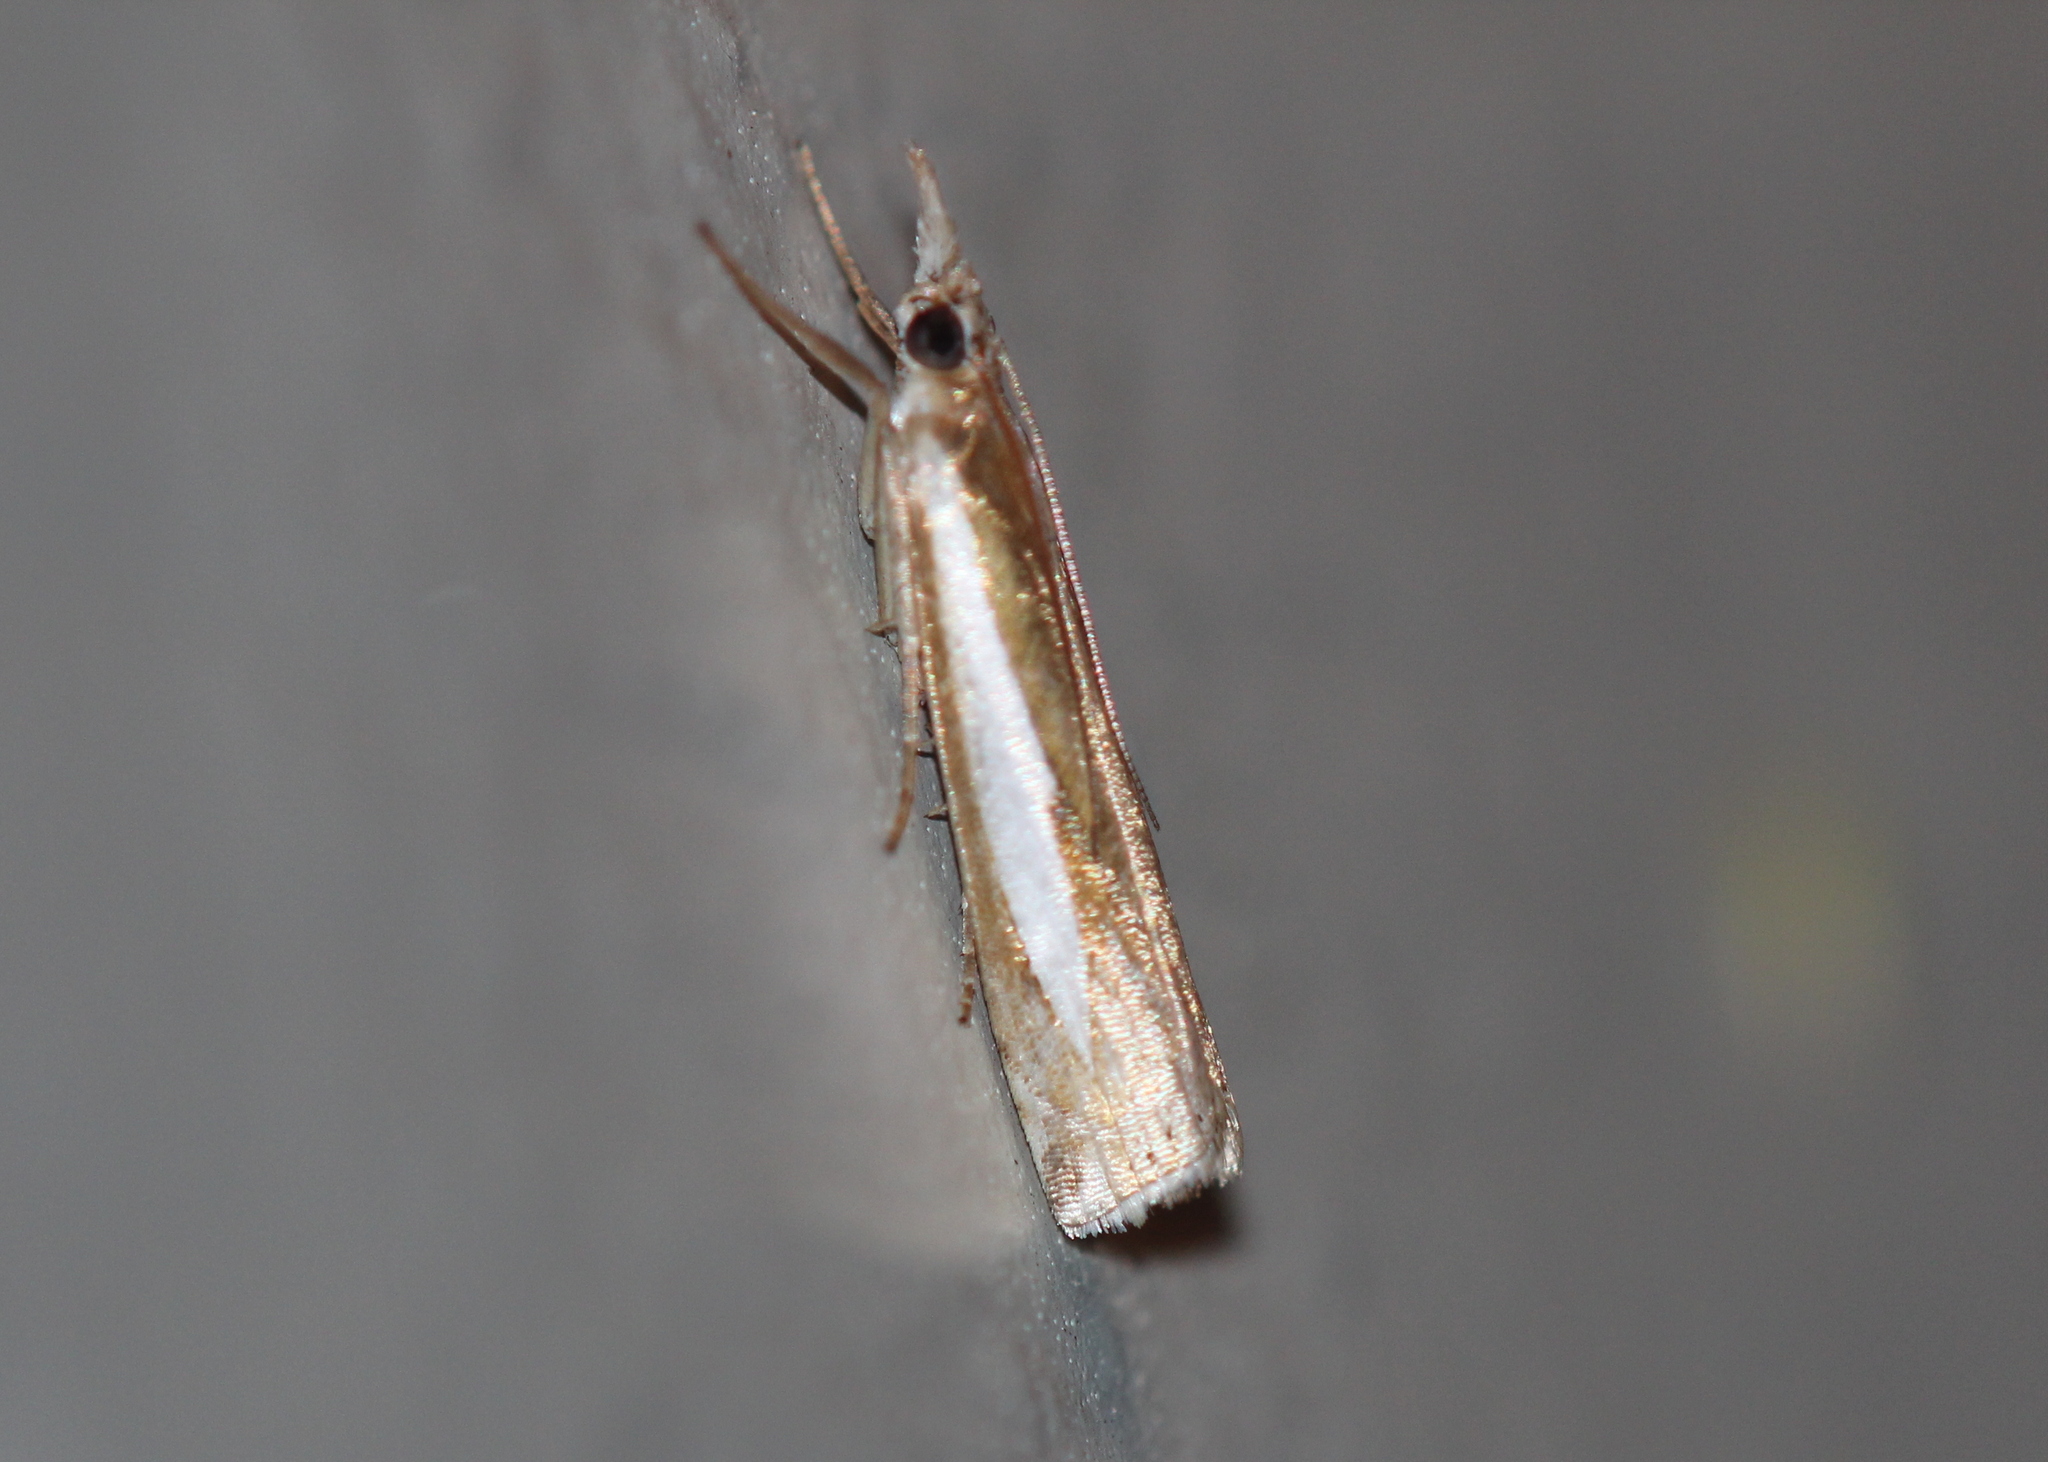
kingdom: Animalia
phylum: Arthropoda
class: Insecta
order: Lepidoptera
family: Crambidae
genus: Crambus
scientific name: Crambus praefectellus
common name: Common grass-veneer
